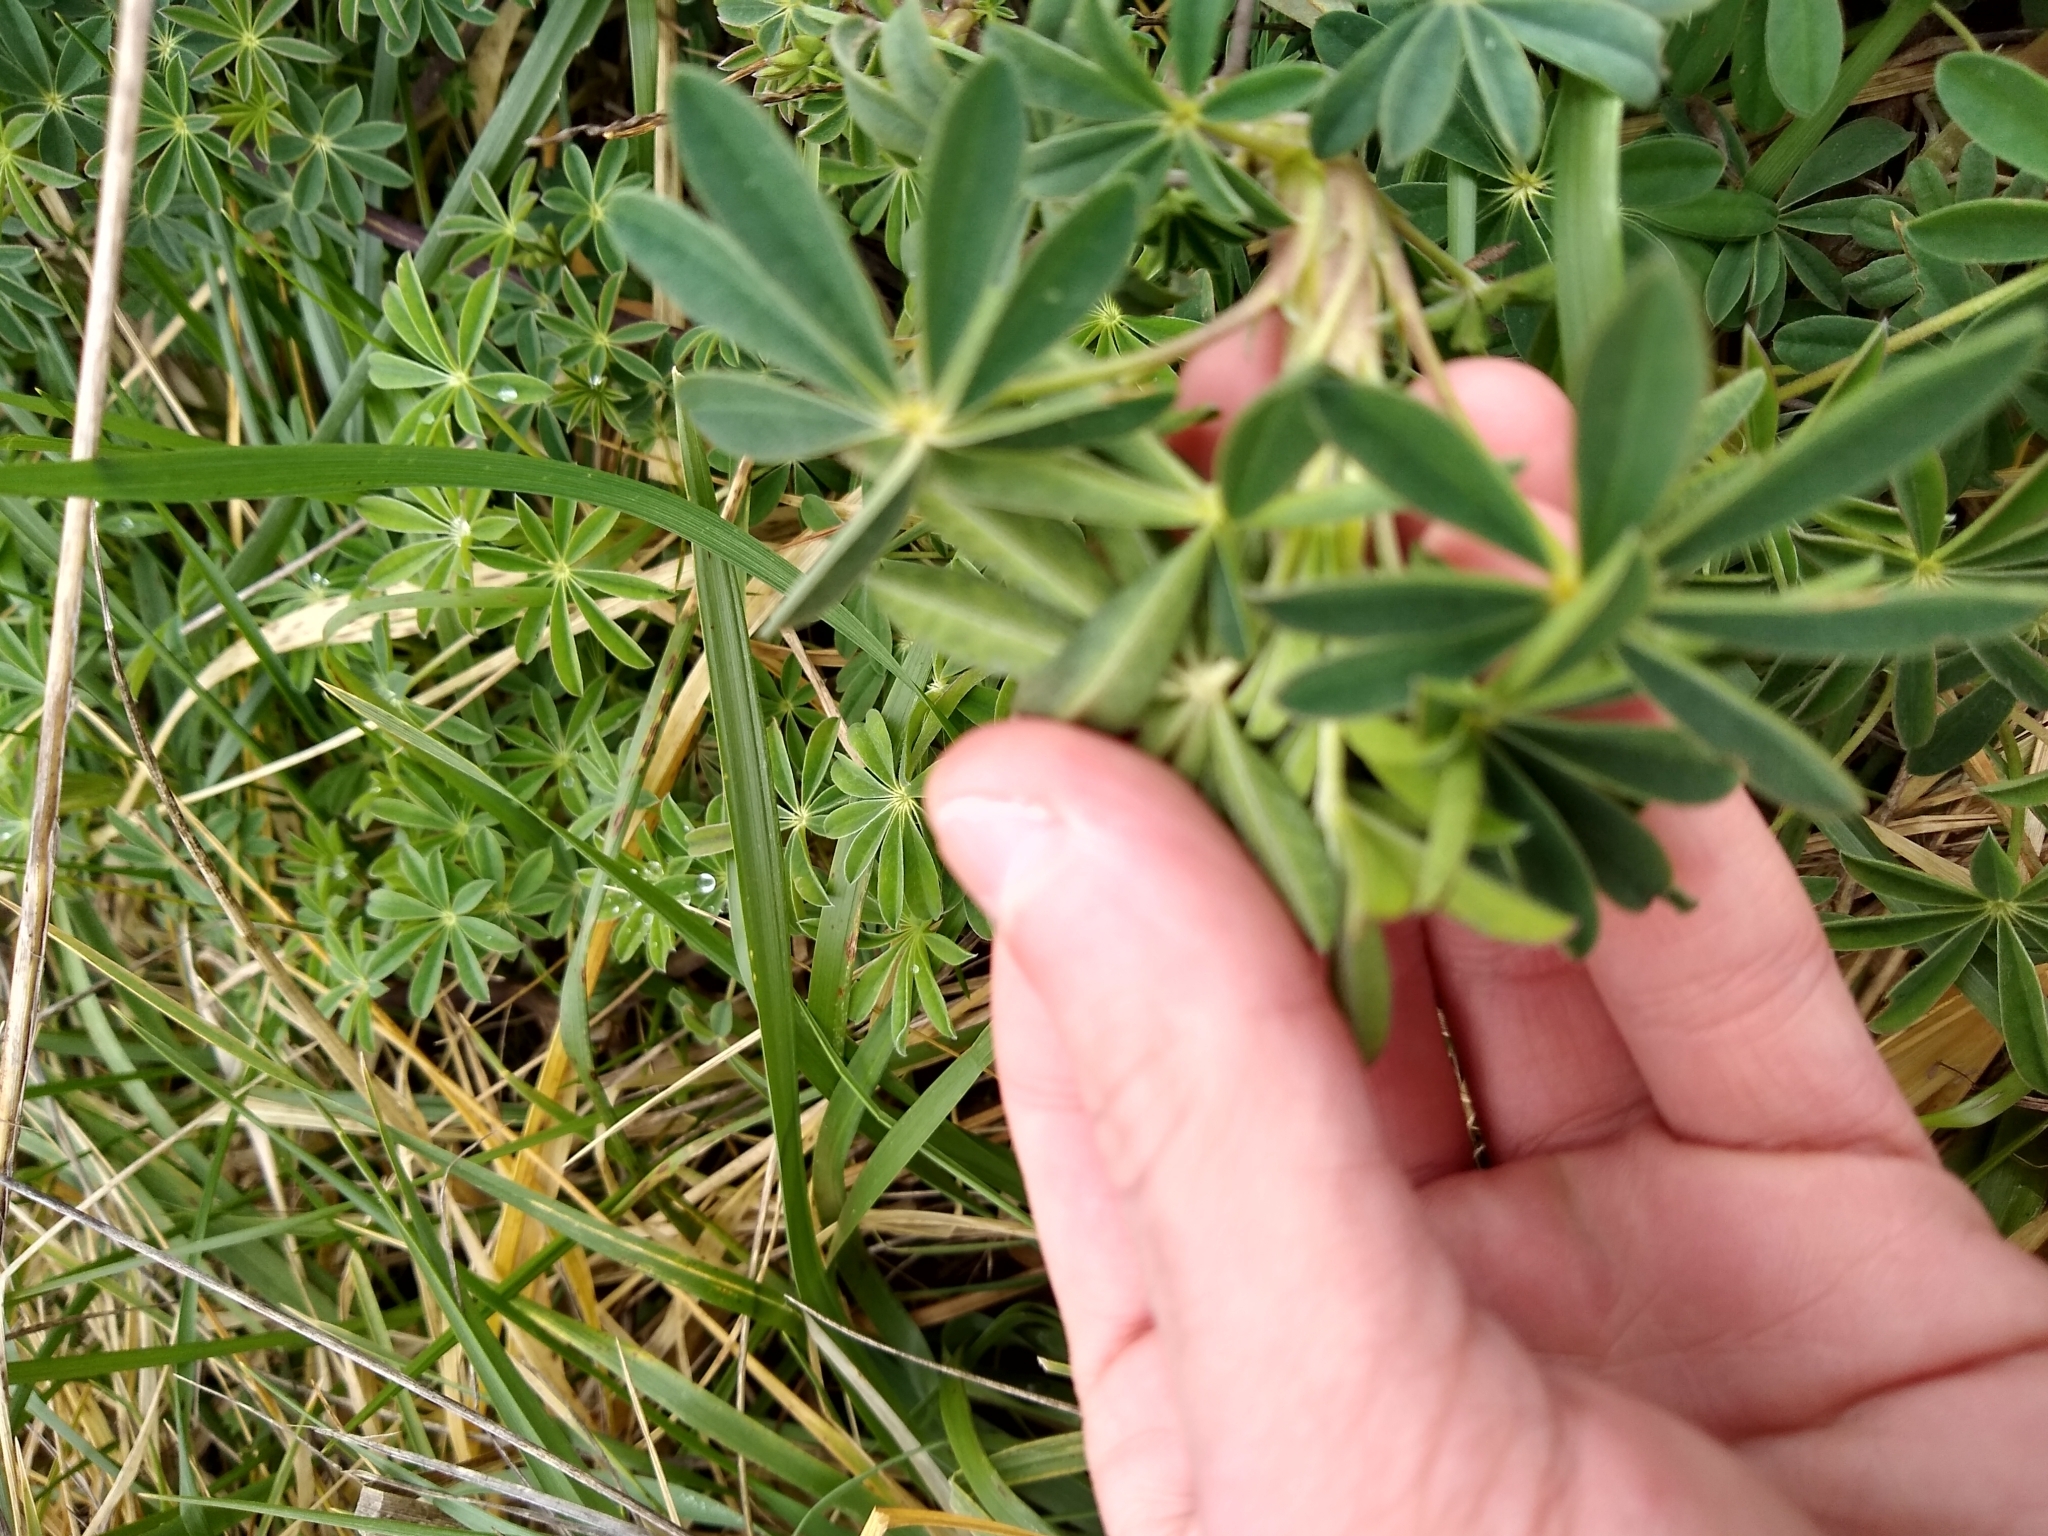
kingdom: Plantae
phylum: Tracheophyta
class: Magnoliopsida
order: Fabales
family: Fabaceae
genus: Lupinus
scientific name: Lupinus rivularis
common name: Riverbank lupine
